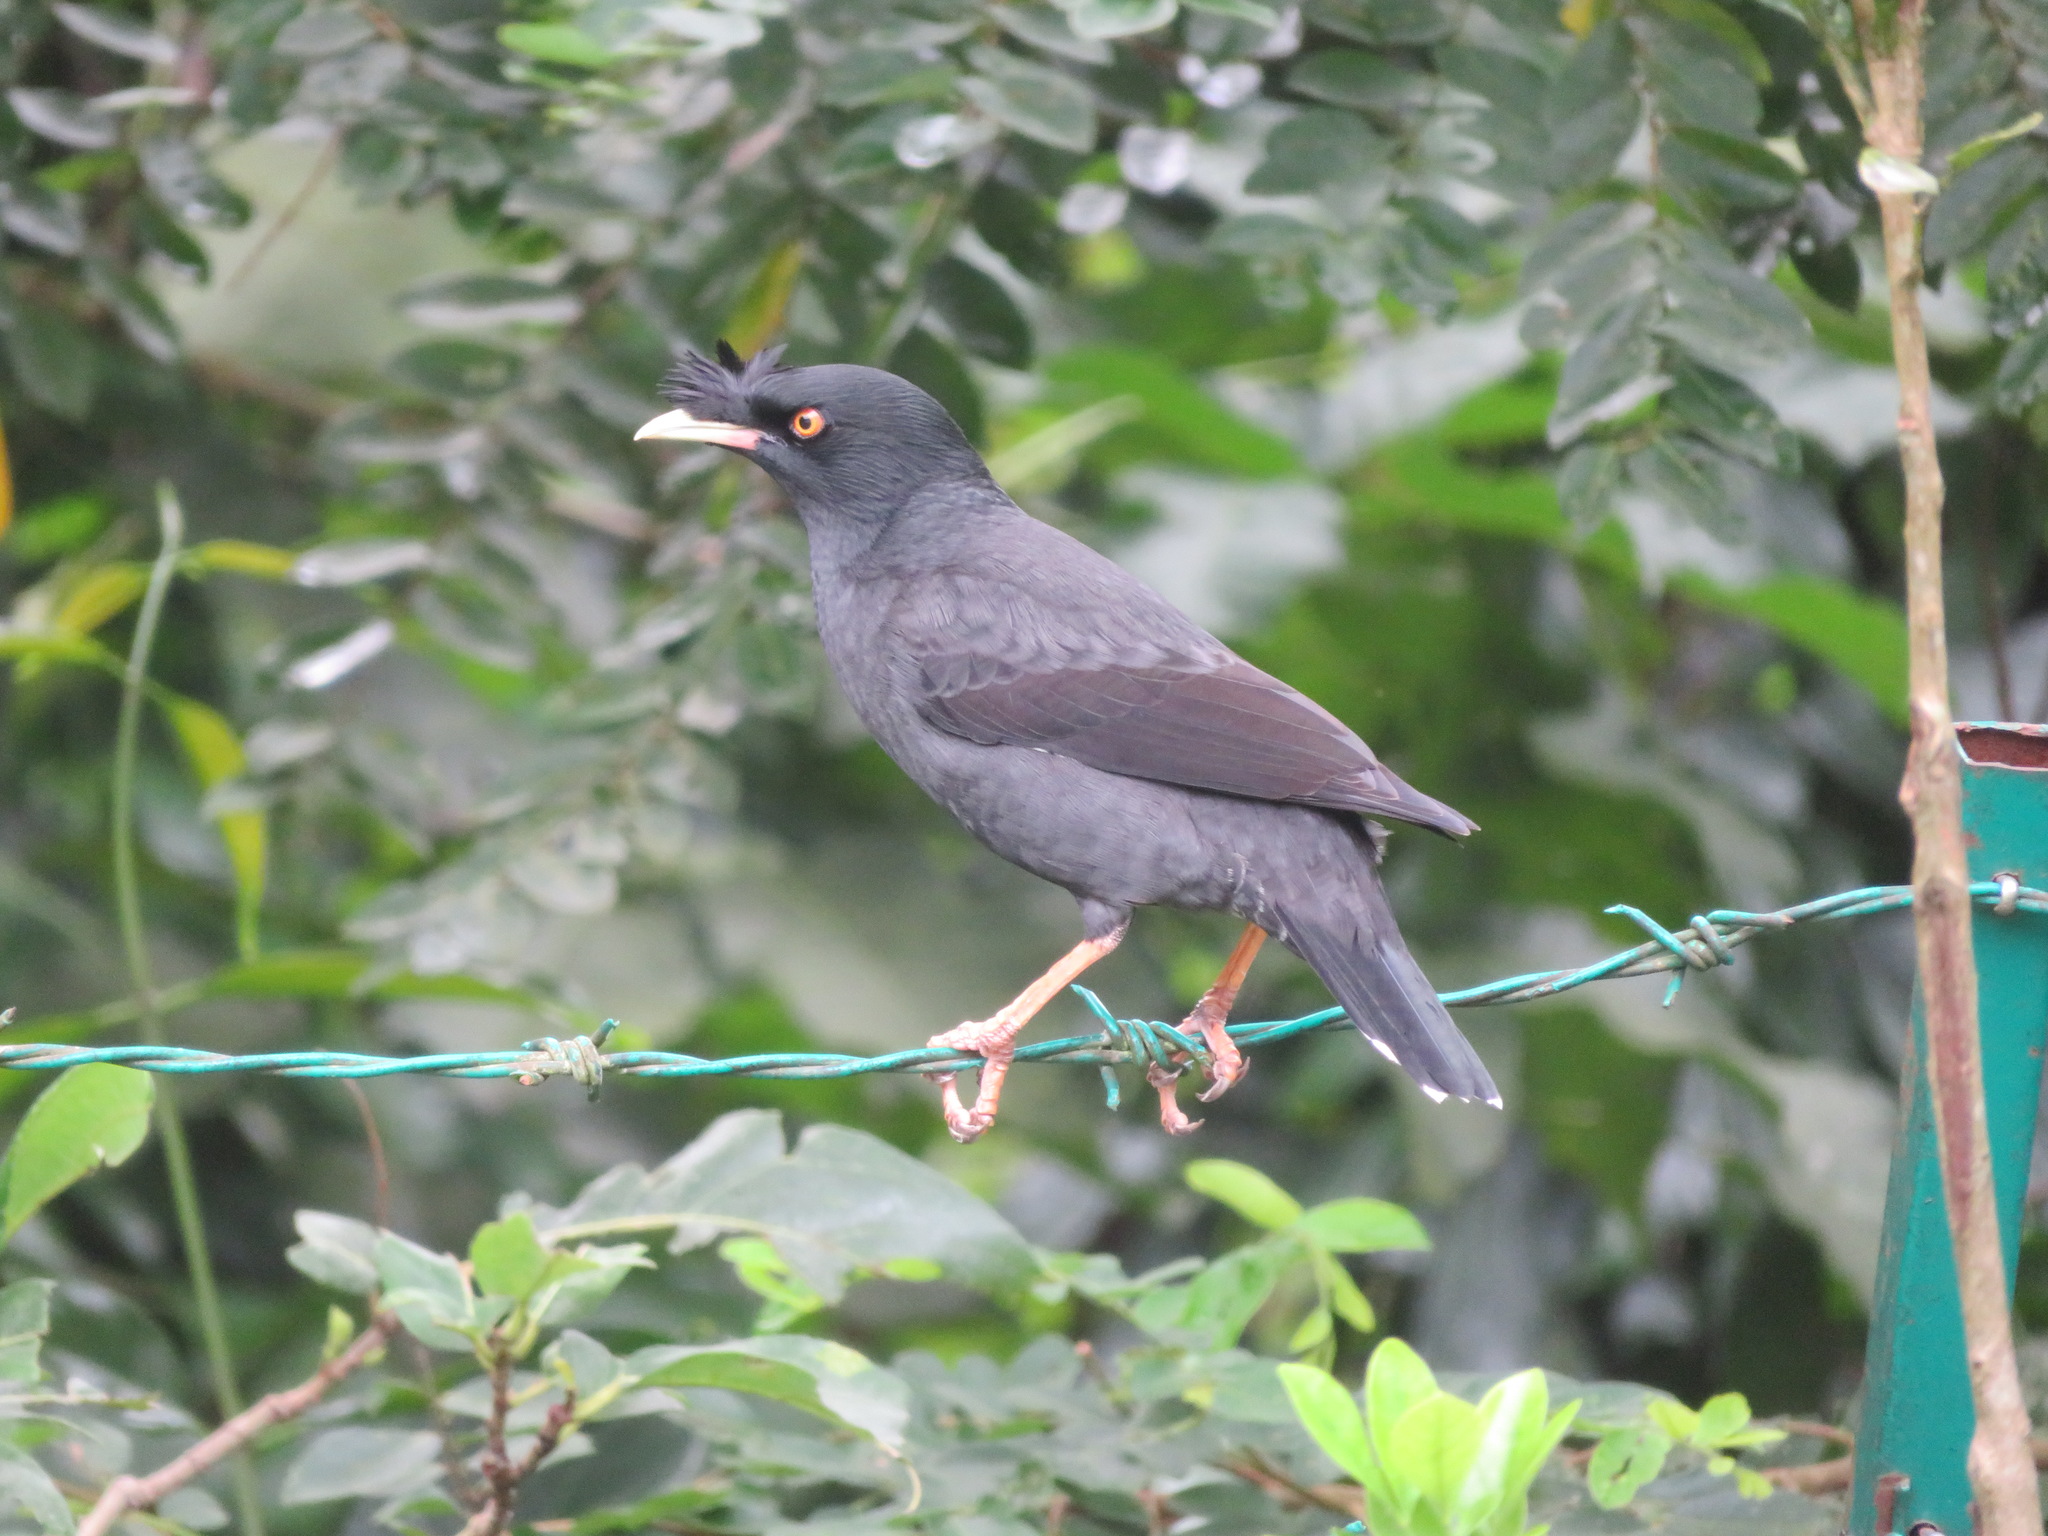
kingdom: Animalia
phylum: Chordata
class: Aves
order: Passeriformes
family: Sturnidae
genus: Acridotheres
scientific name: Acridotheres cristatellus
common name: Crested myna
